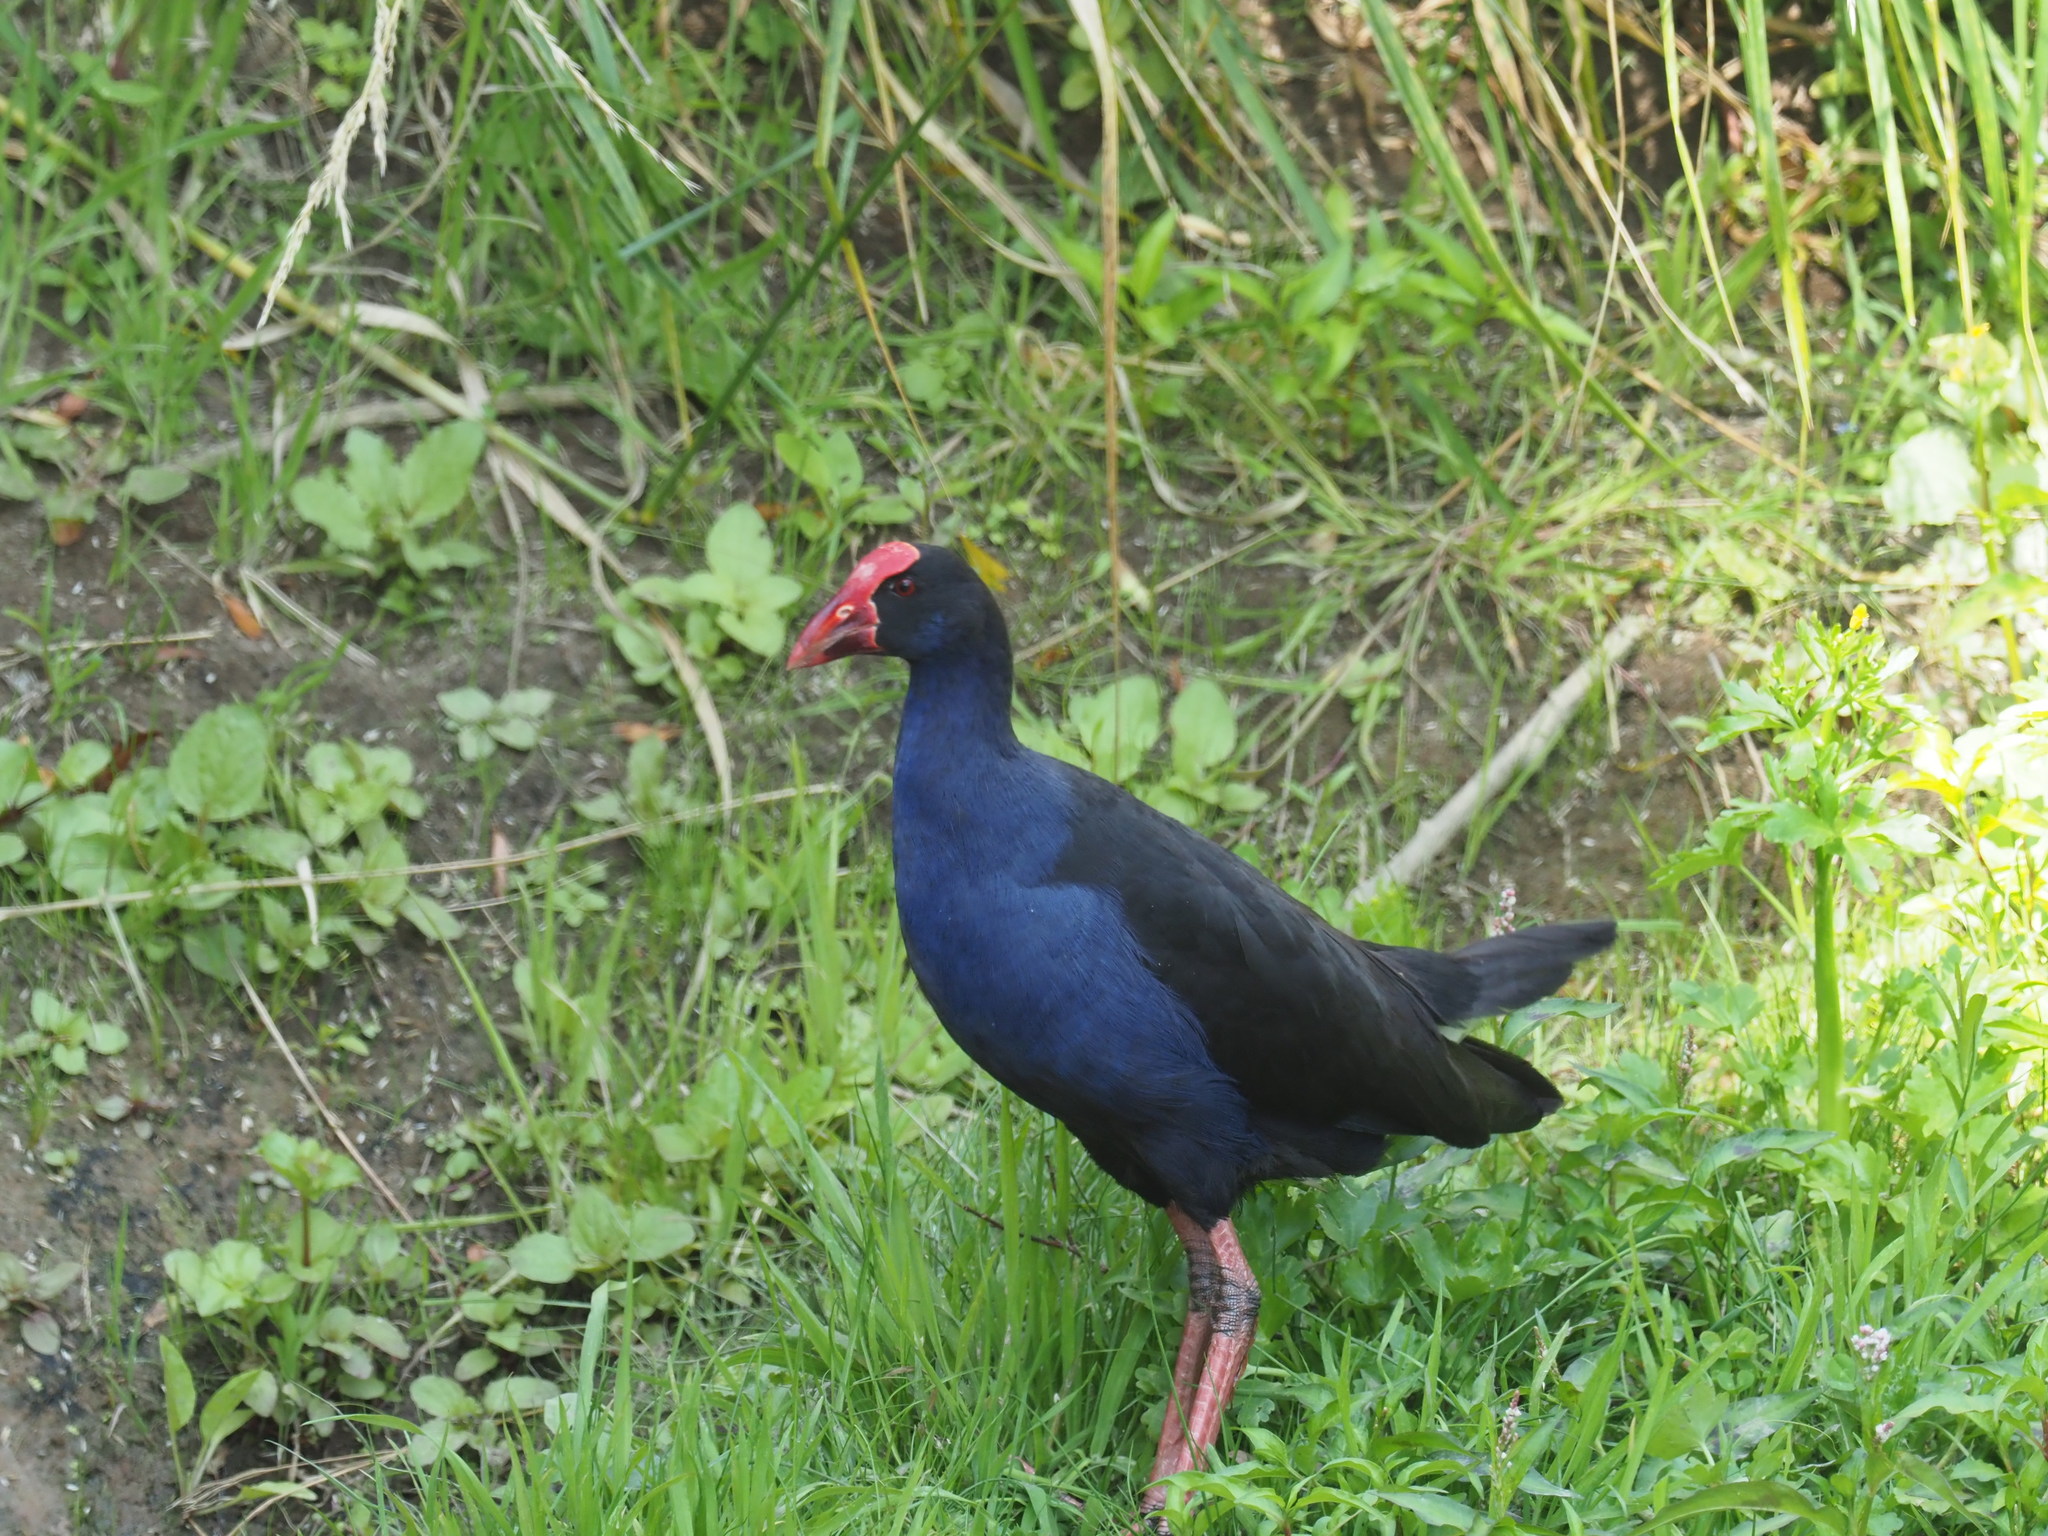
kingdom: Animalia
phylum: Chordata
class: Aves
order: Gruiformes
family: Rallidae
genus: Porphyrio
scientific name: Porphyrio melanotus
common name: Australasian swamphen
